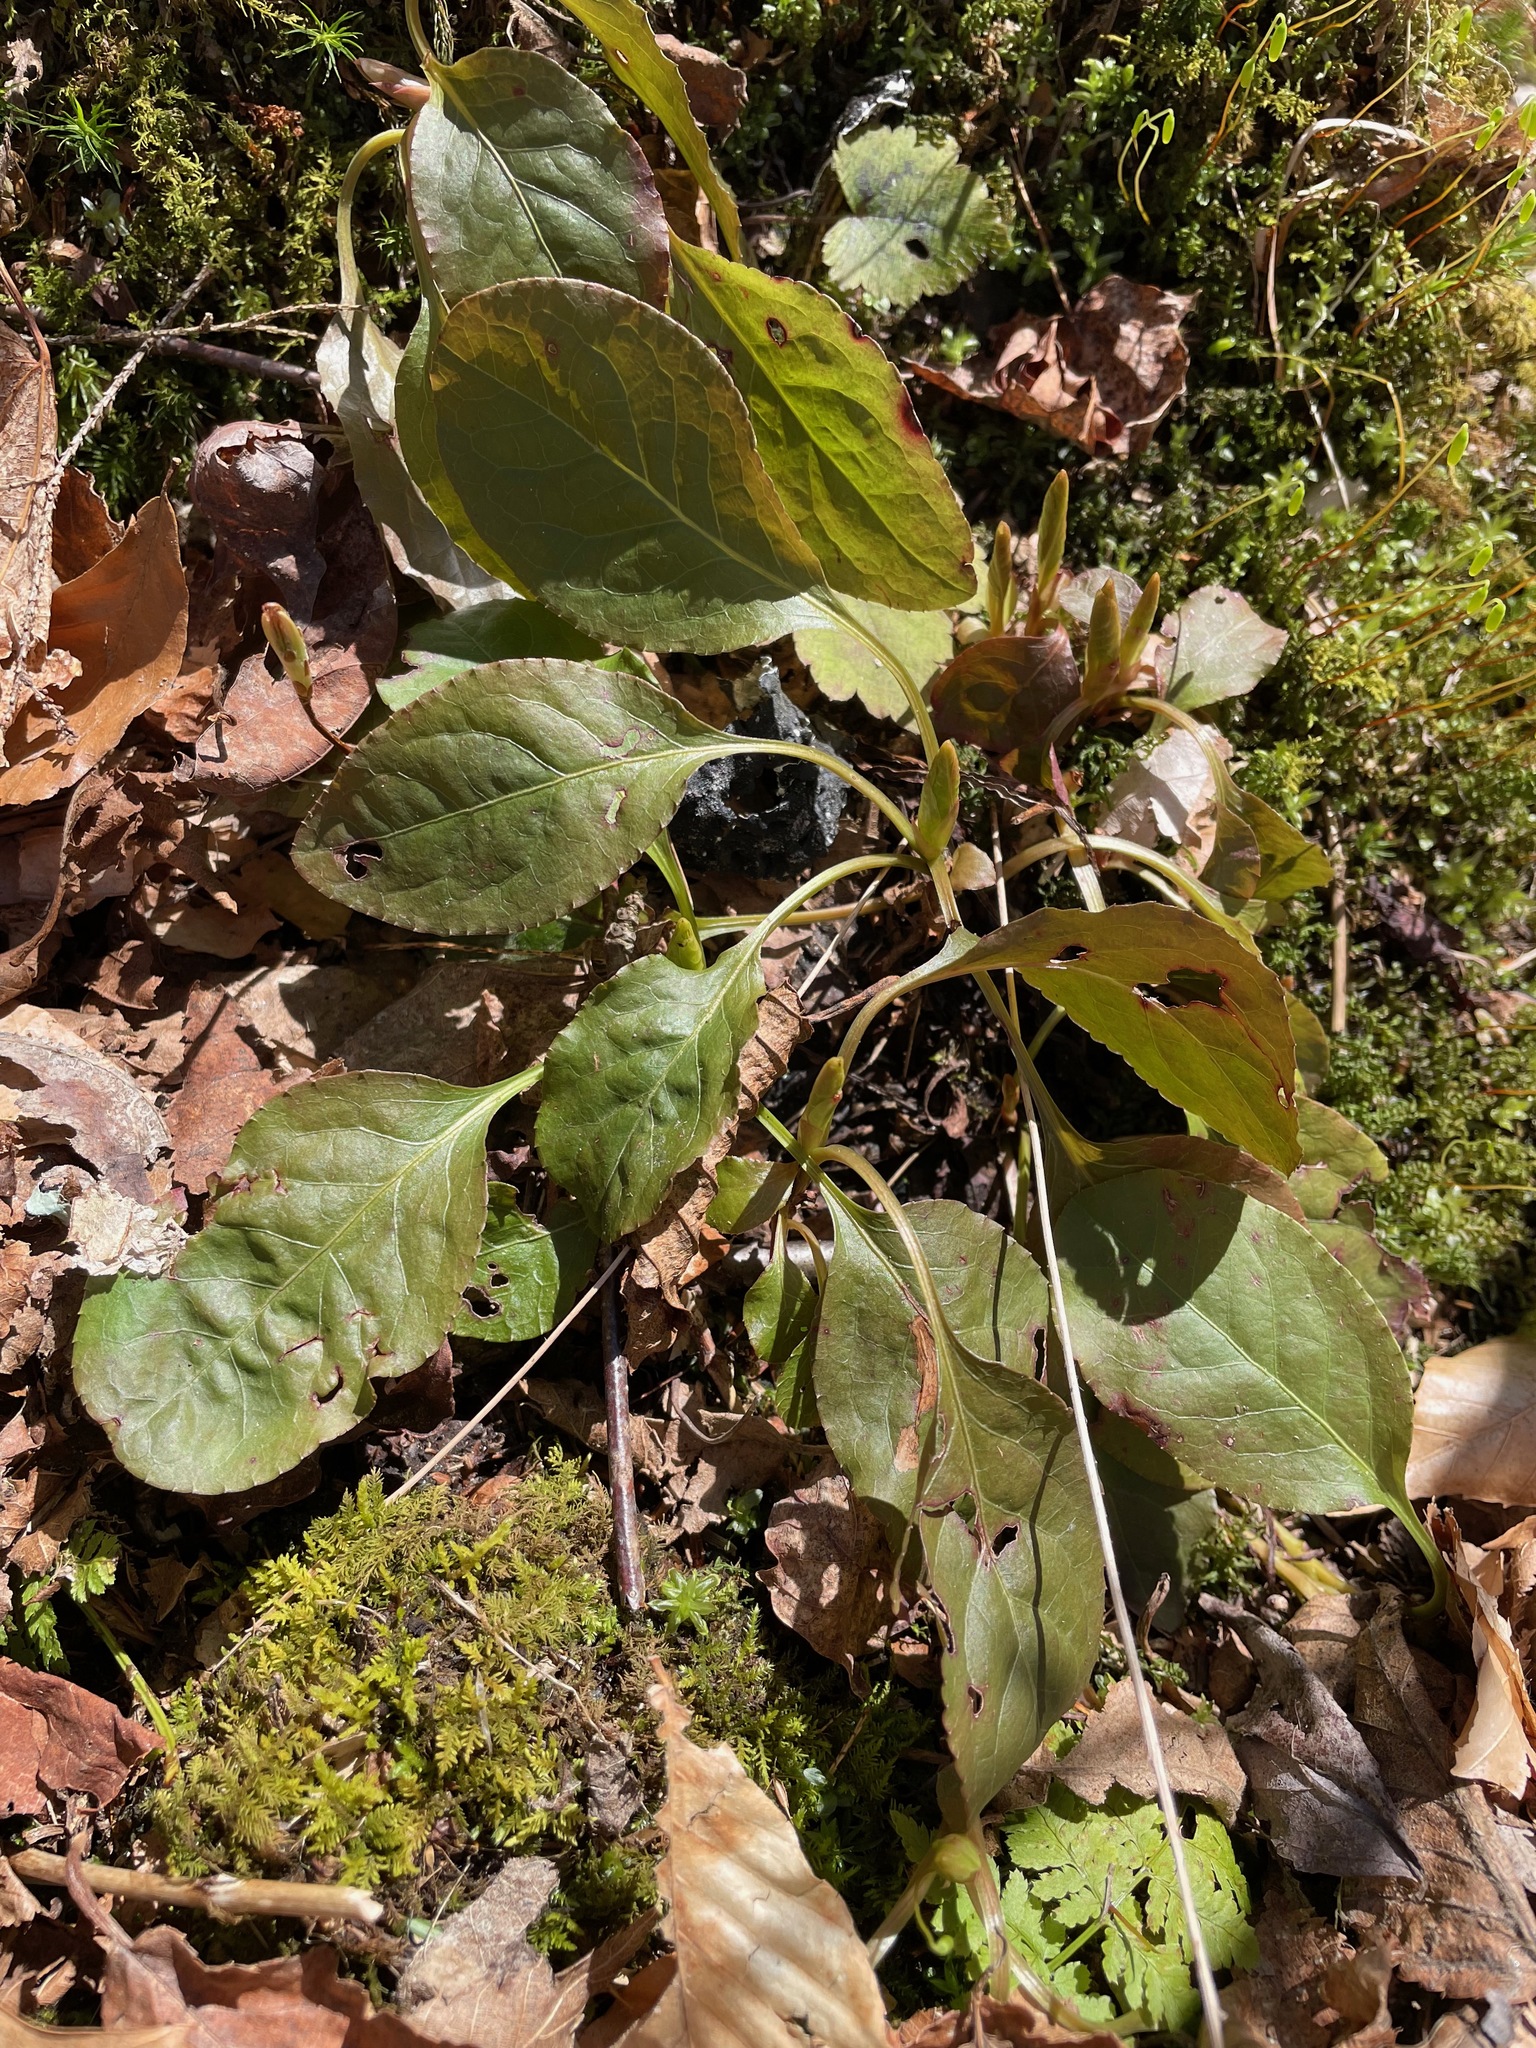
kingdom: Plantae
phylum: Tracheophyta
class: Magnoliopsida
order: Ericales
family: Ericaceae
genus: Pyrola
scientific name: Pyrola elliptica
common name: Shinleaf
